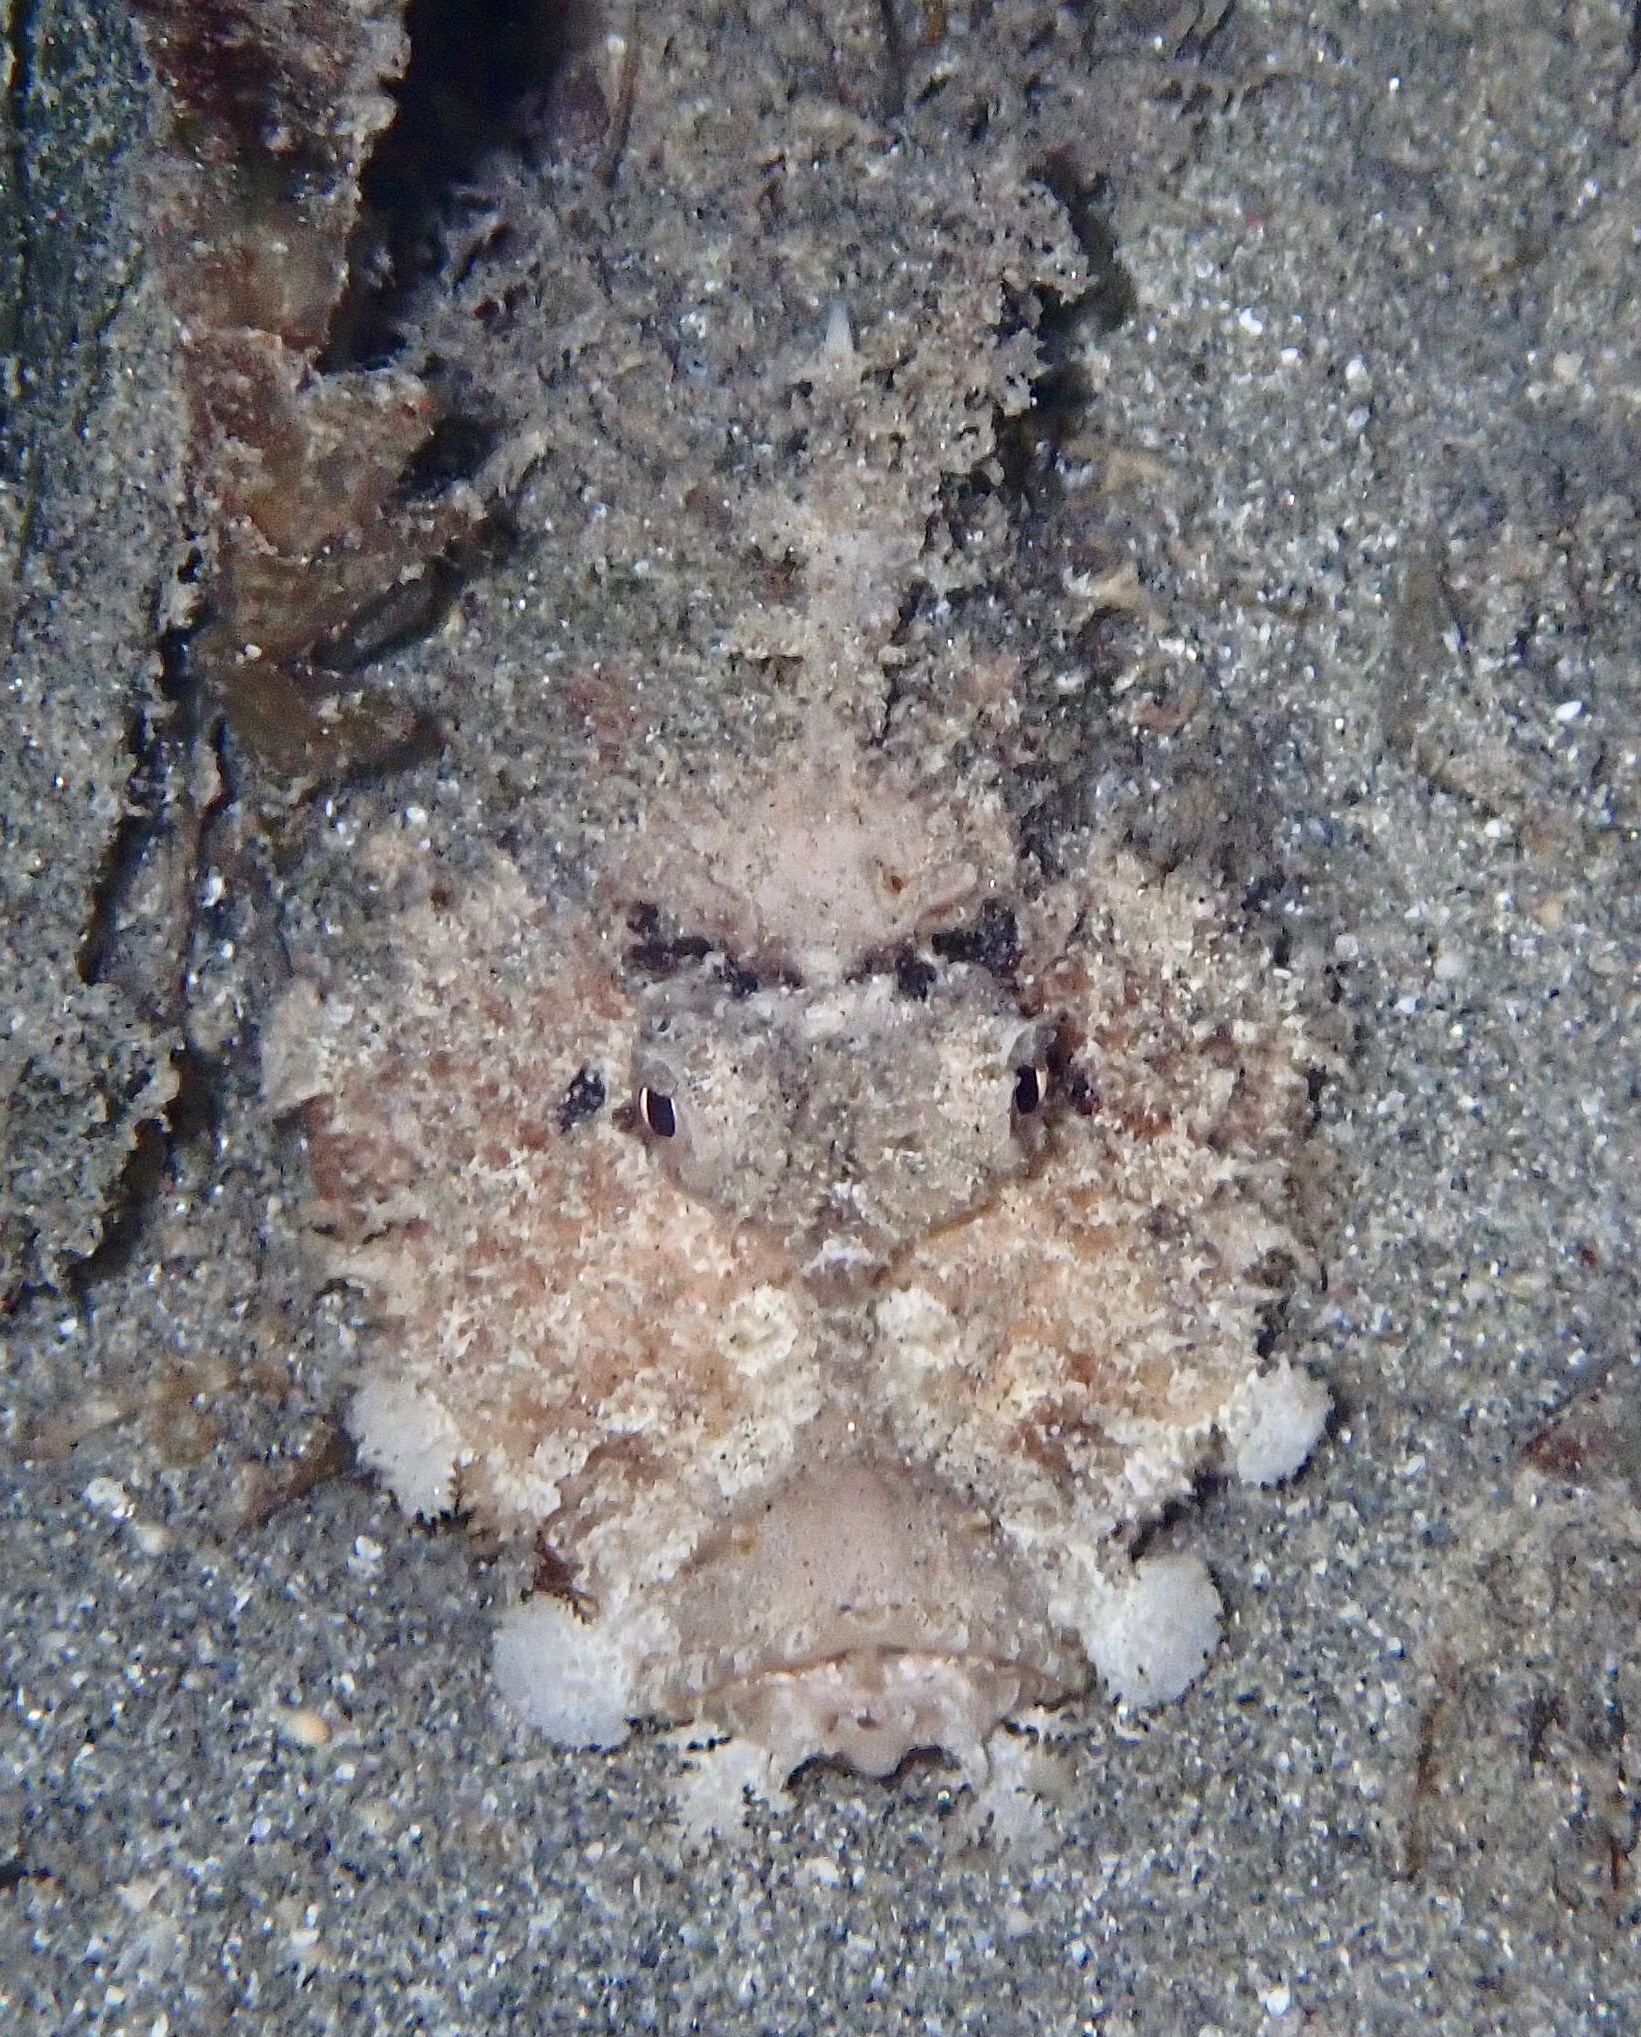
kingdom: Animalia
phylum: Chordata
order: Scorpaeniformes
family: Synanceiidae
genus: Inimicus
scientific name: Inimicus filamentosus
